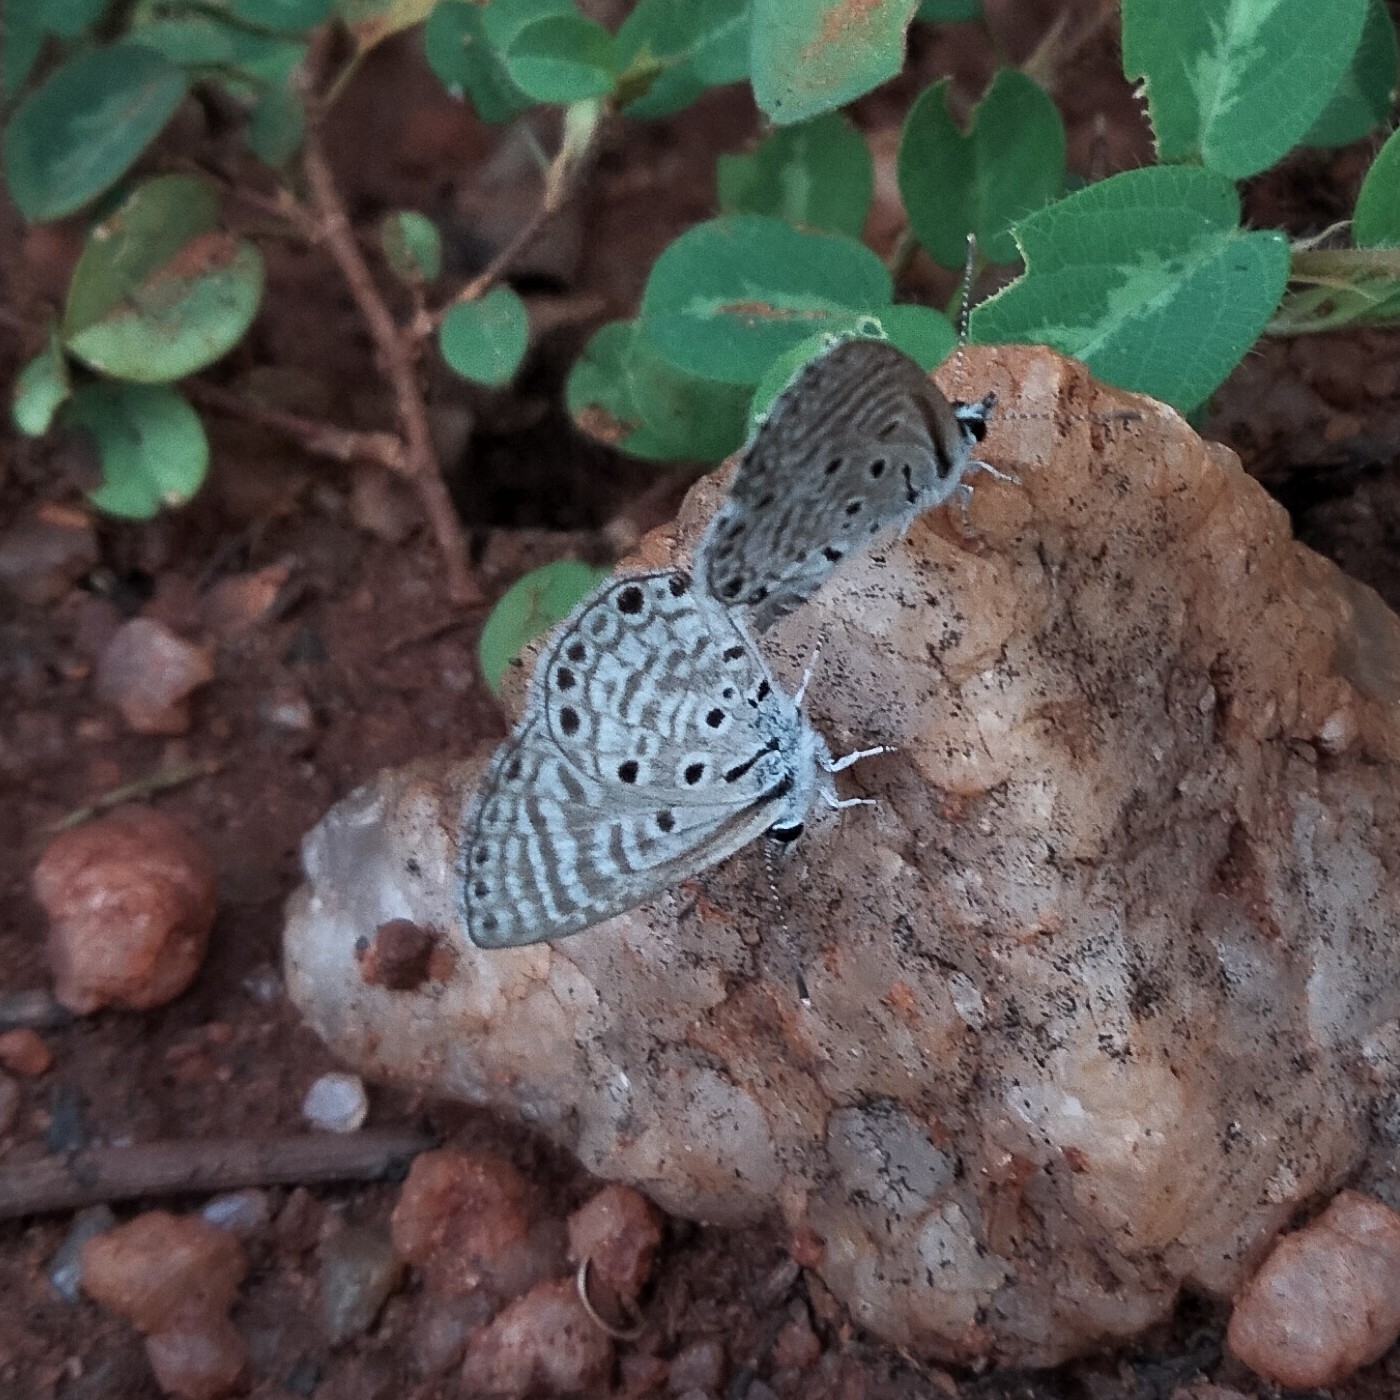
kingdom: Animalia
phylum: Arthropoda
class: Insecta
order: Lepidoptera
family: Lycaenidae
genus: Azanus
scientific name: Azanus jesous
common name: African babul blue
